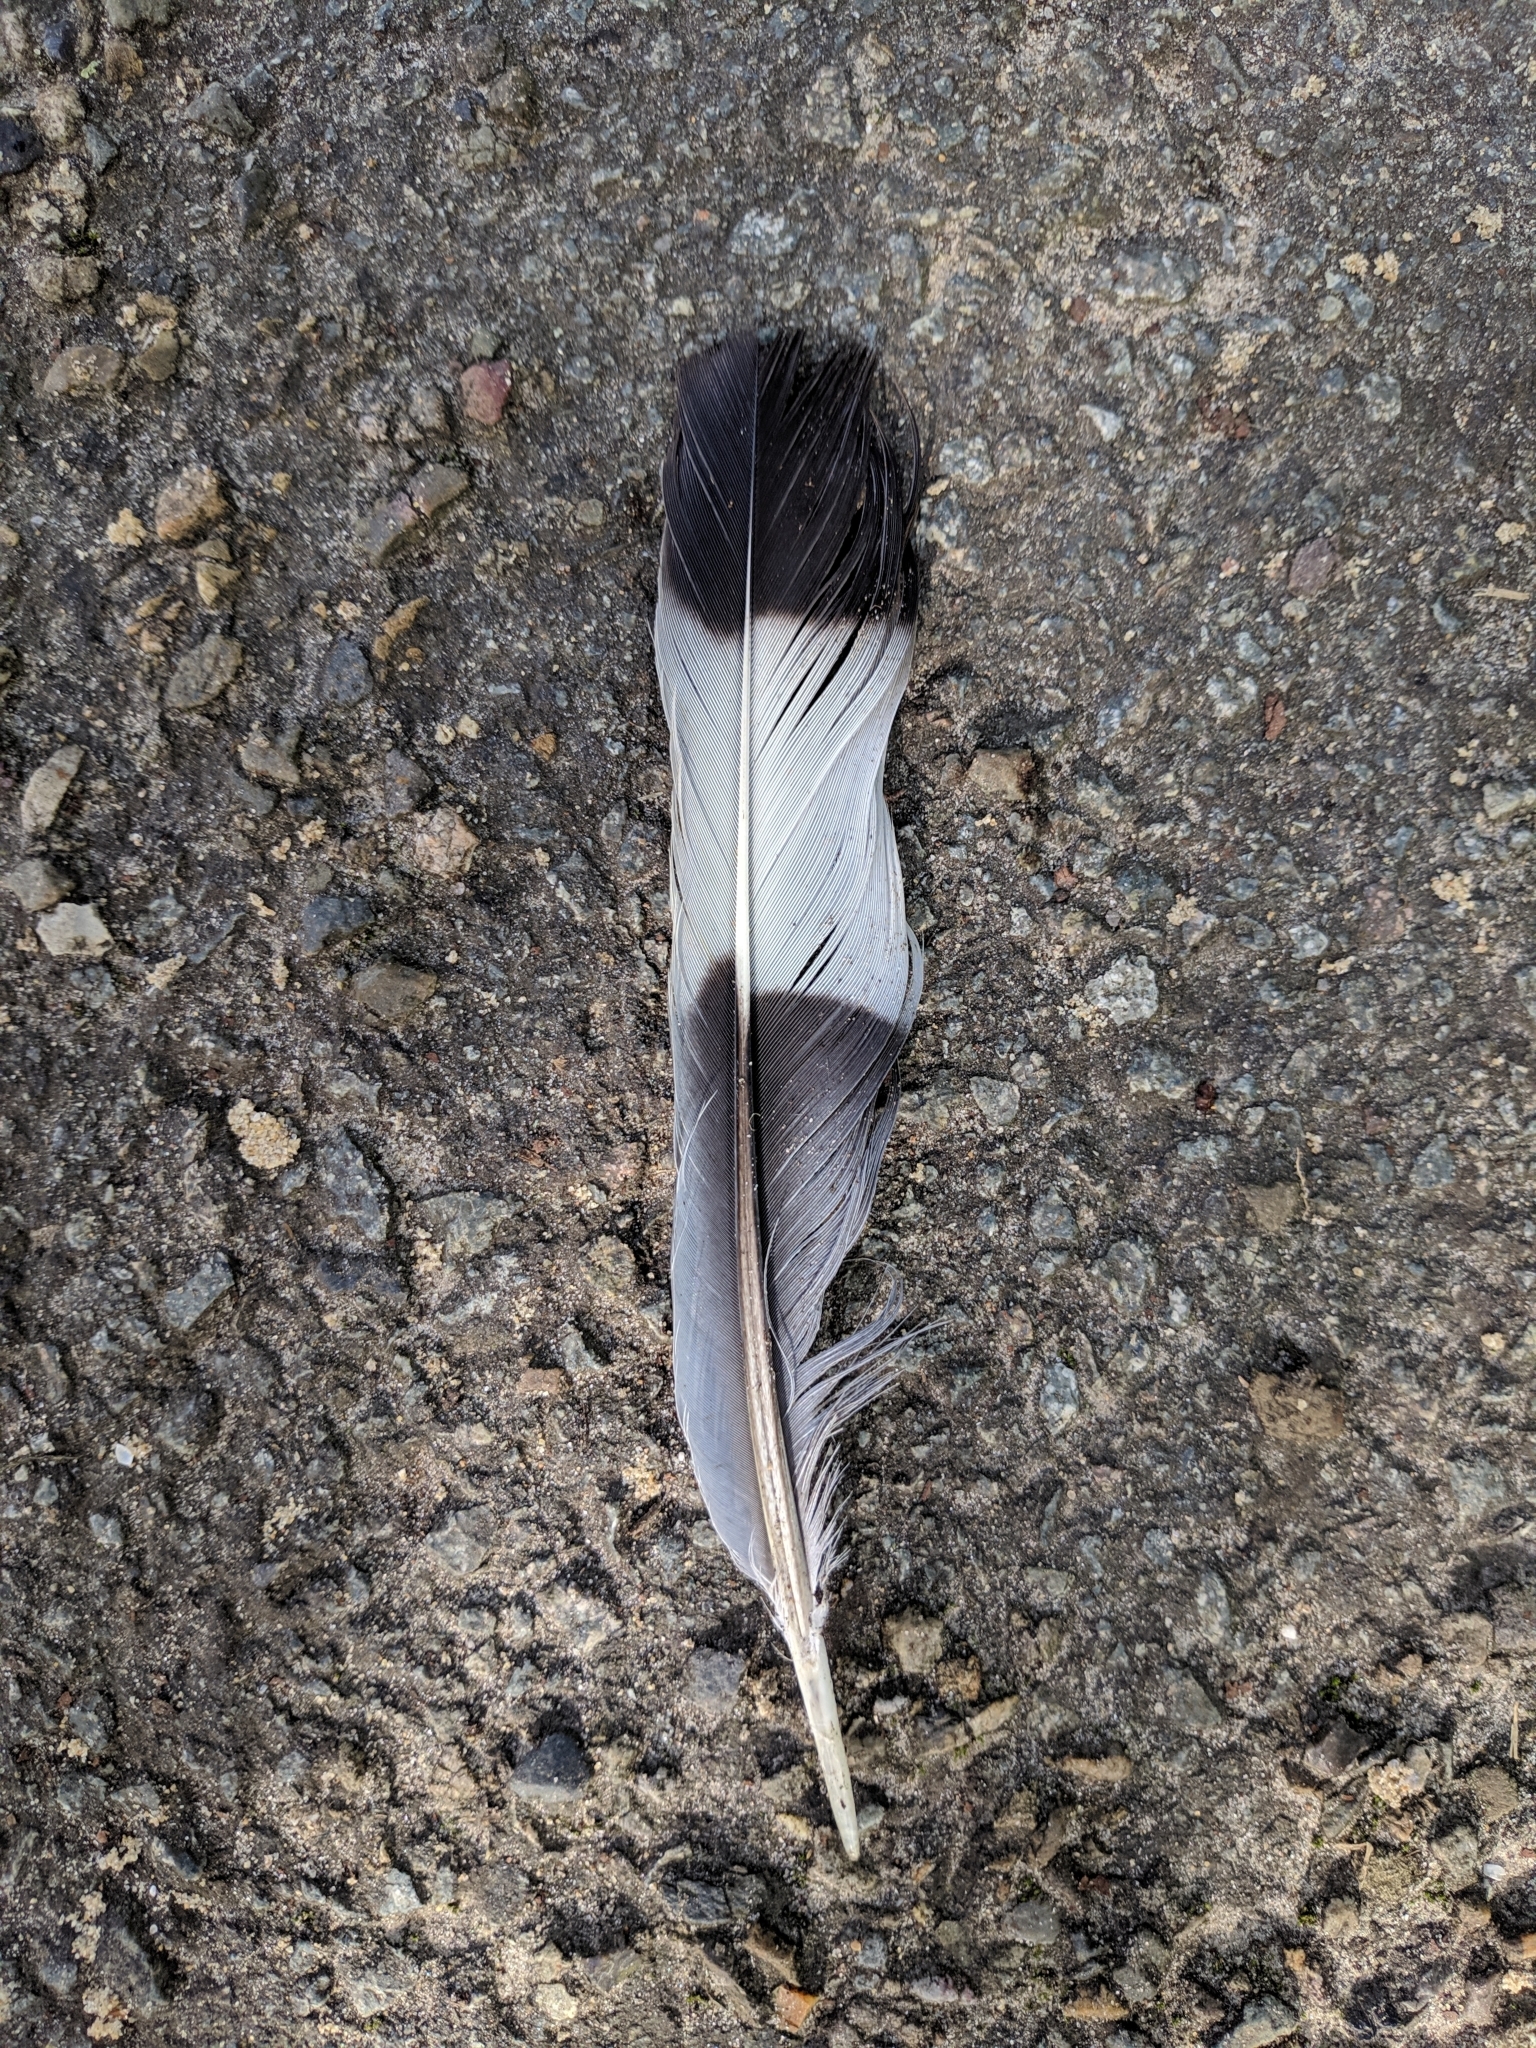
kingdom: Animalia
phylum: Chordata
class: Aves
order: Columbiformes
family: Columbidae
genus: Columba
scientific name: Columba palumbus
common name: Common wood pigeon
